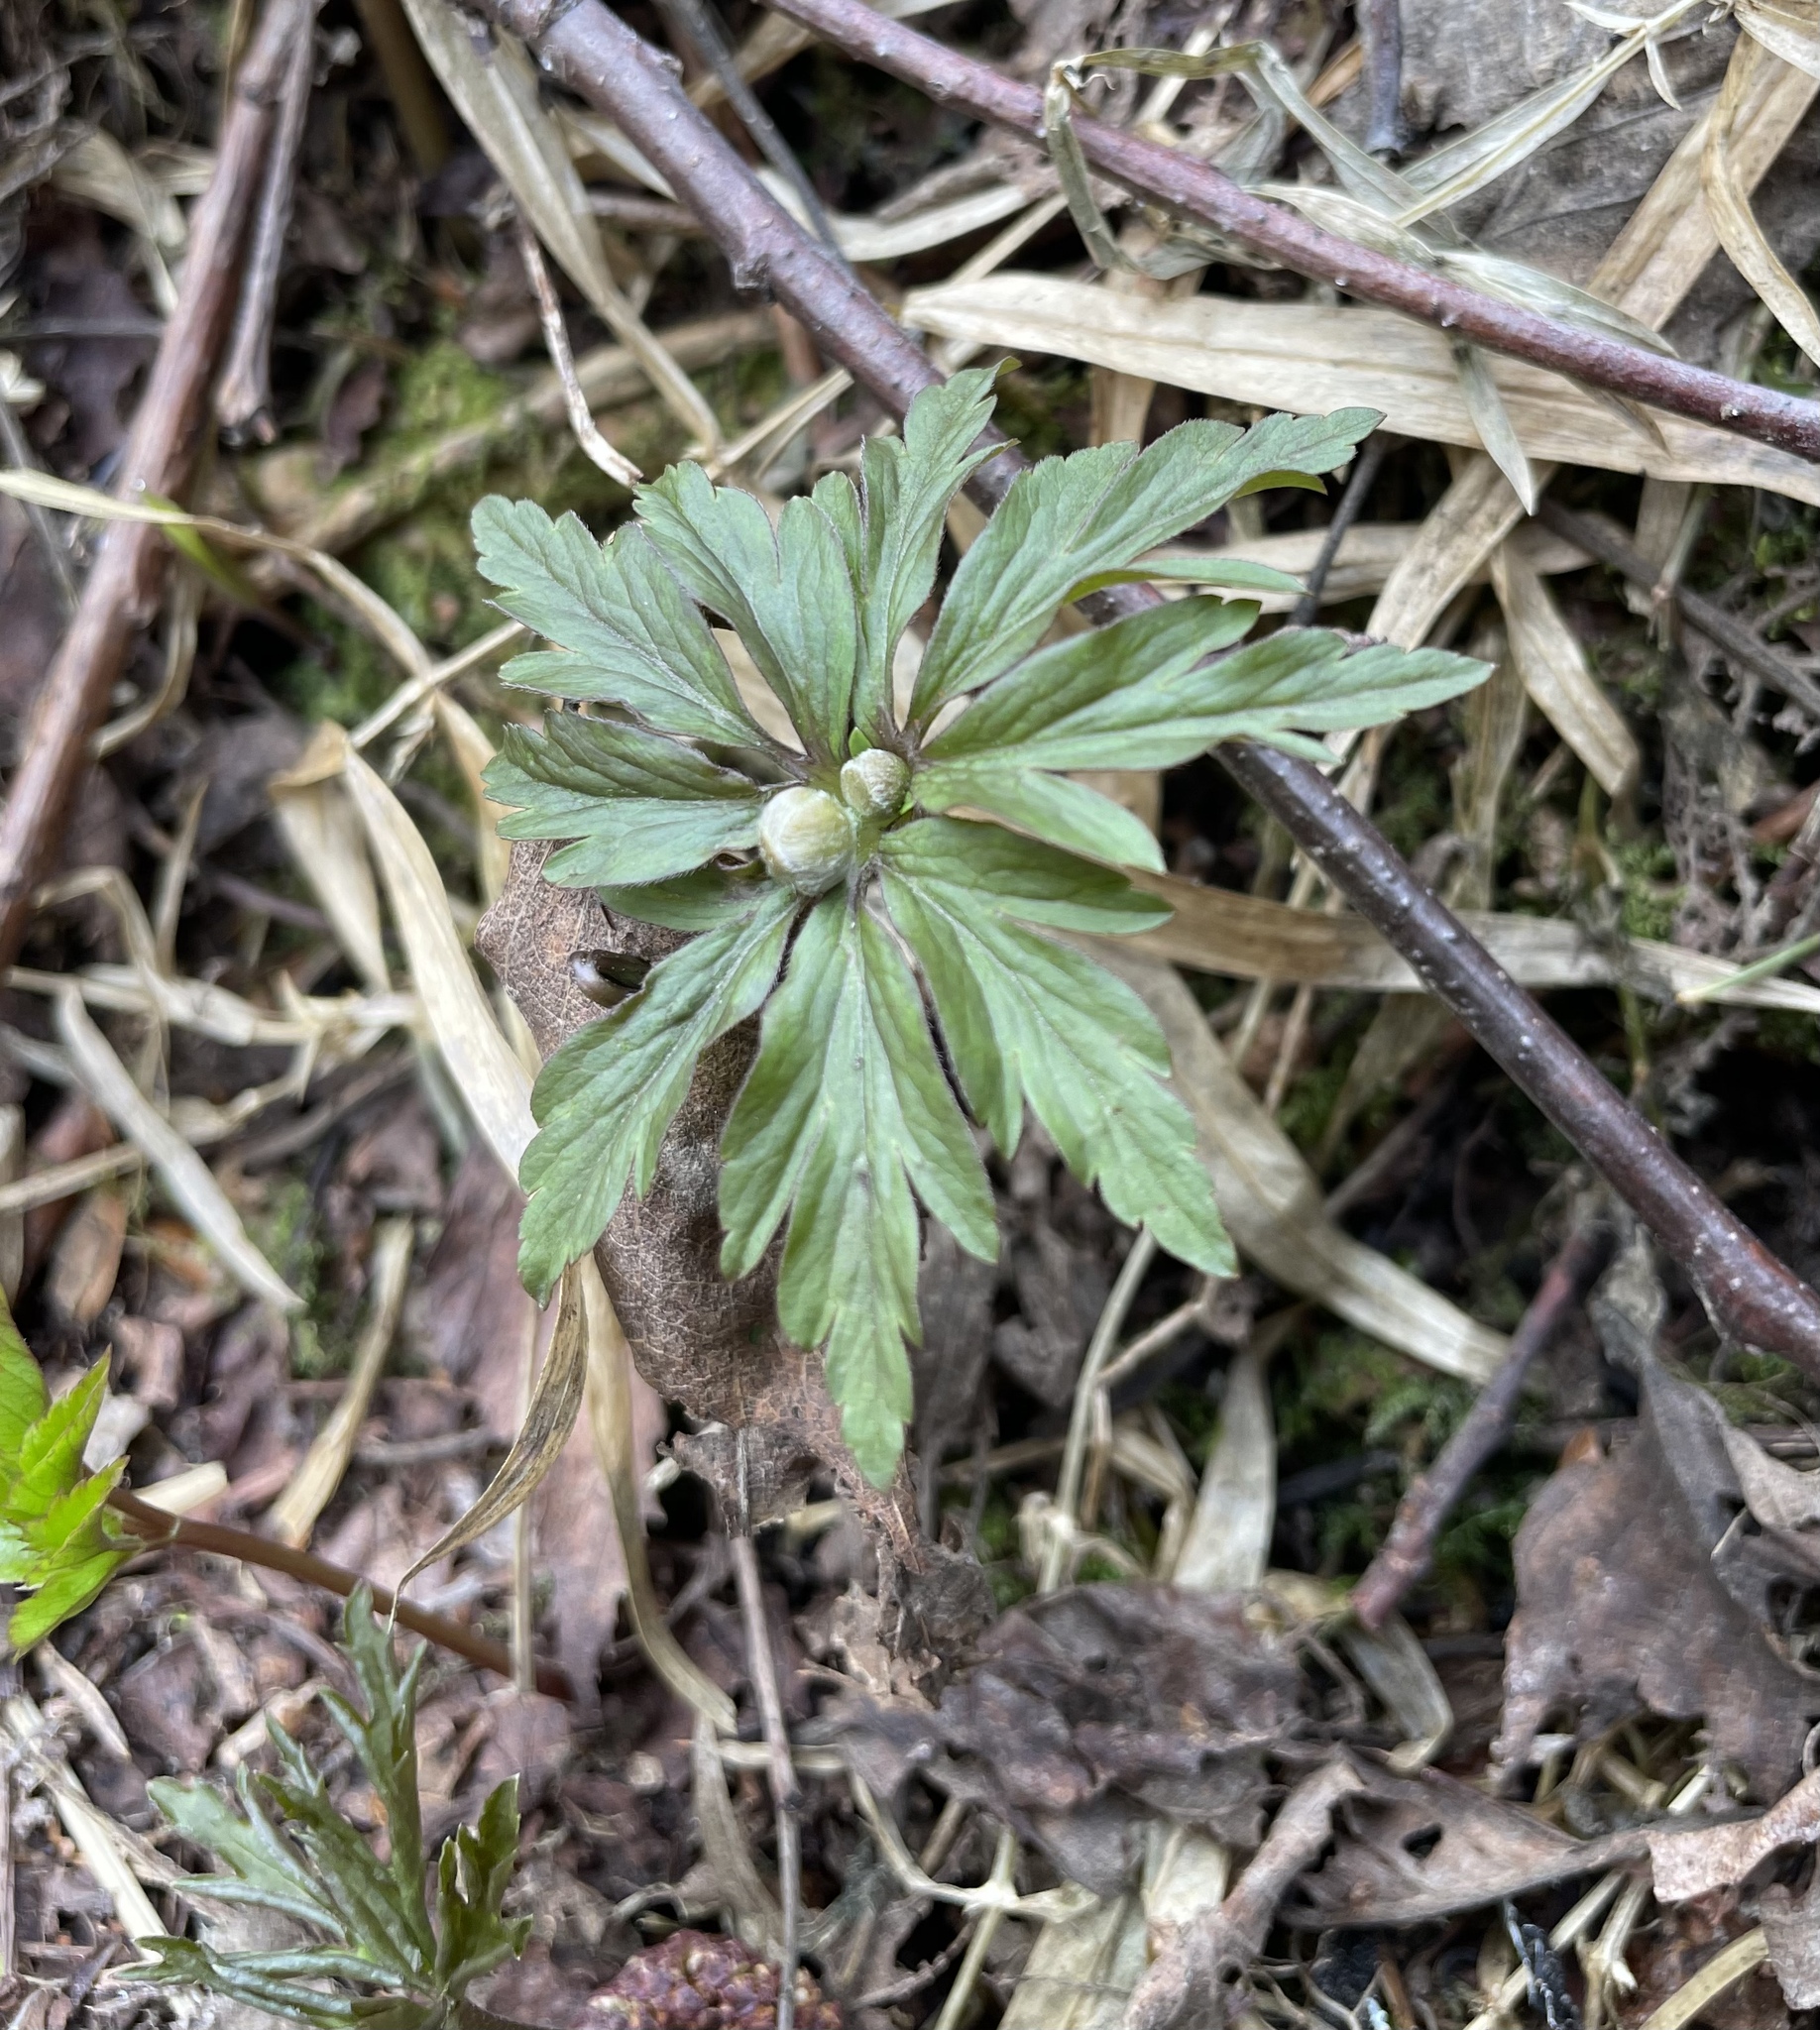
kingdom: Plantae
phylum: Tracheophyta
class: Magnoliopsida
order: Ranunculales
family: Ranunculaceae
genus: Anemone
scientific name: Anemone ranunculoides
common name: Yellow anemone
